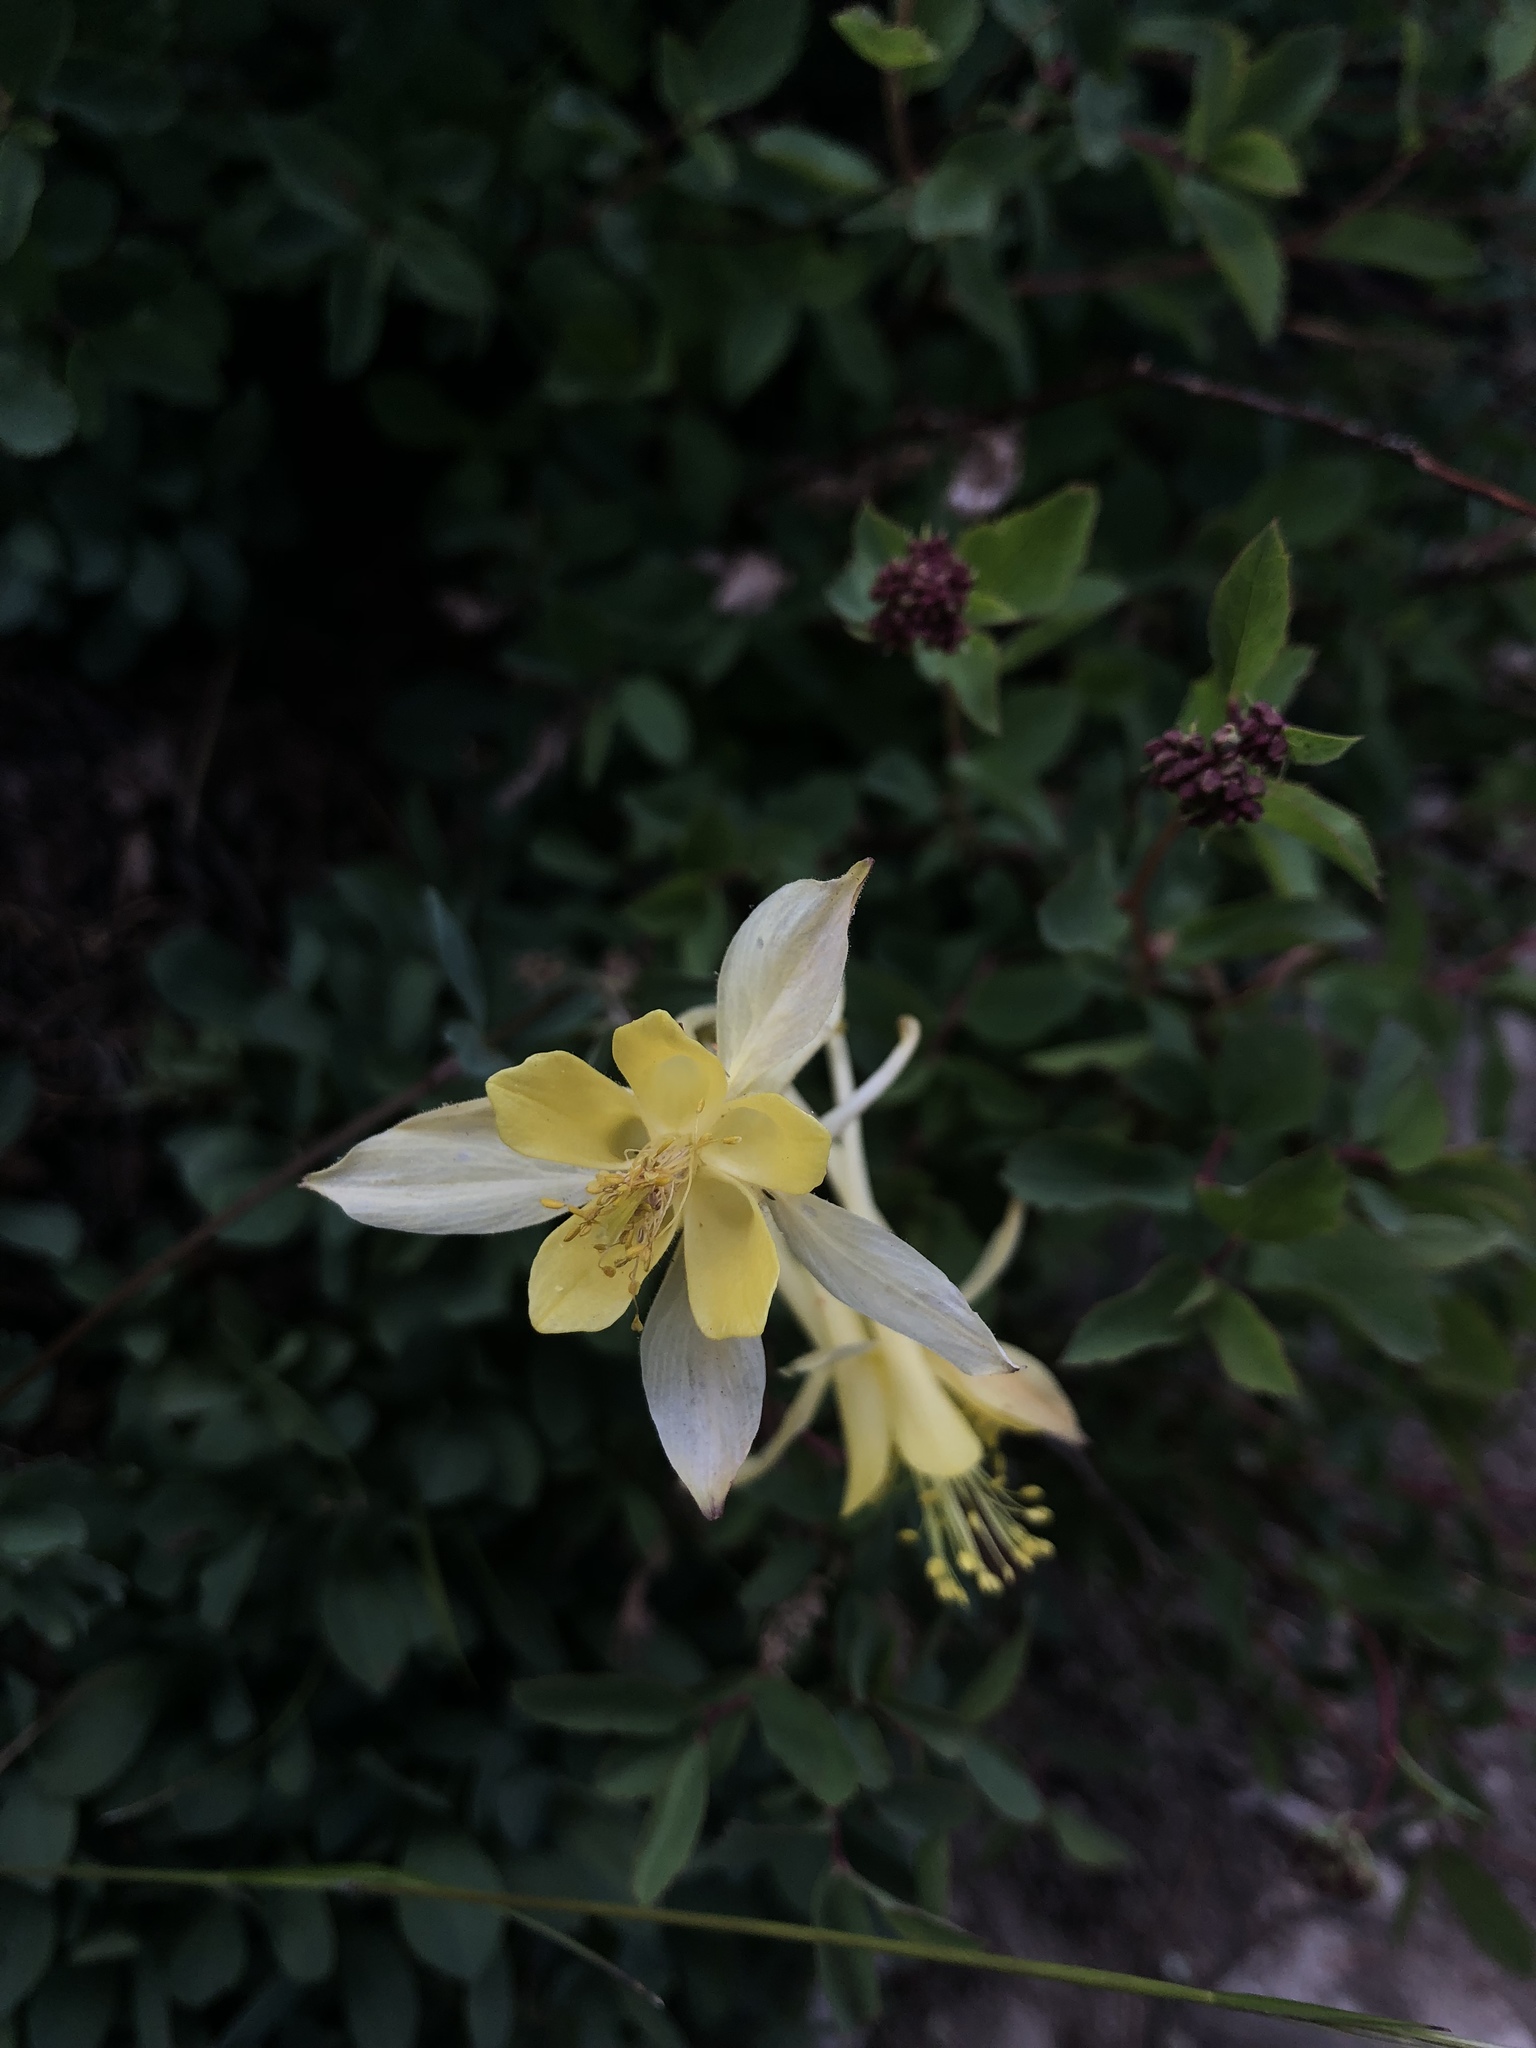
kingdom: Plantae
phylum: Tracheophyta
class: Magnoliopsida
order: Ranunculales
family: Ranunculaceae
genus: Aquilegia
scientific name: Aquilegia pubescens
